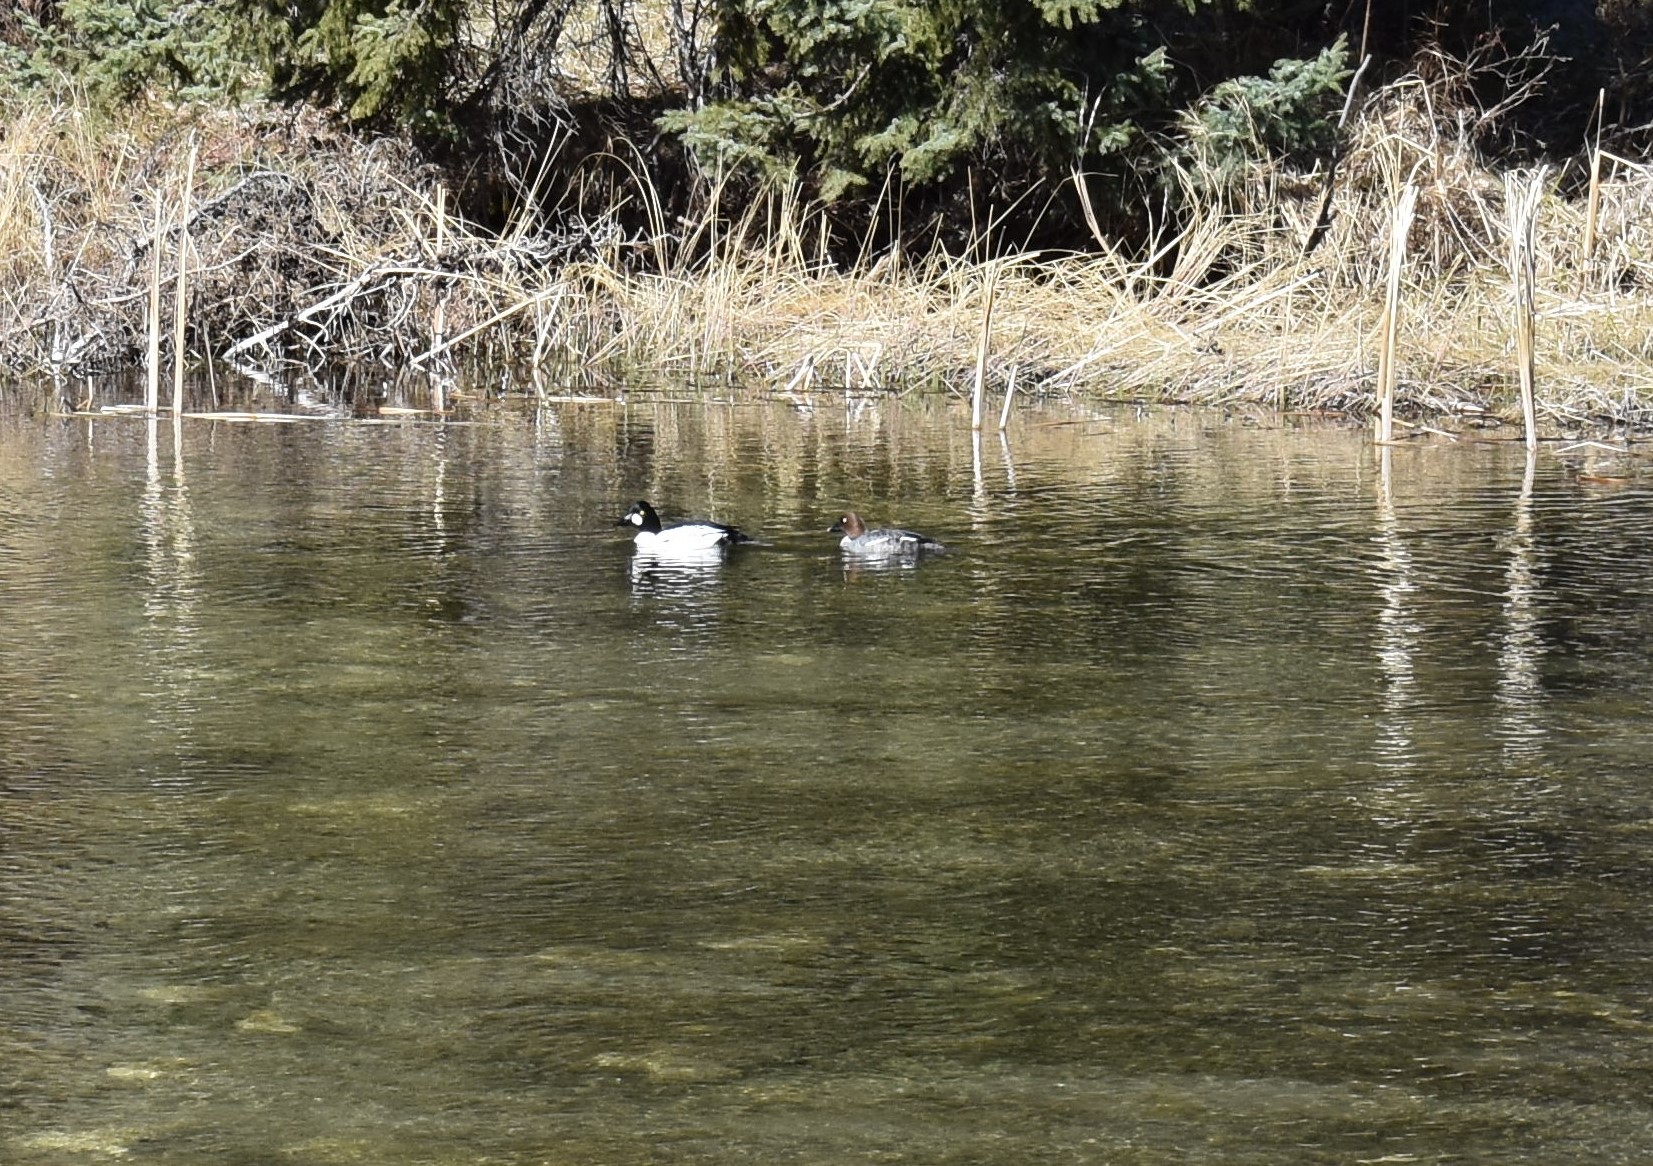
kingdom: Animalia
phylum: Chordata
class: Aves
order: Anseriformes
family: Anatidae
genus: Bucephala
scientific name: Bucephala clangula
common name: Common goldeneye
